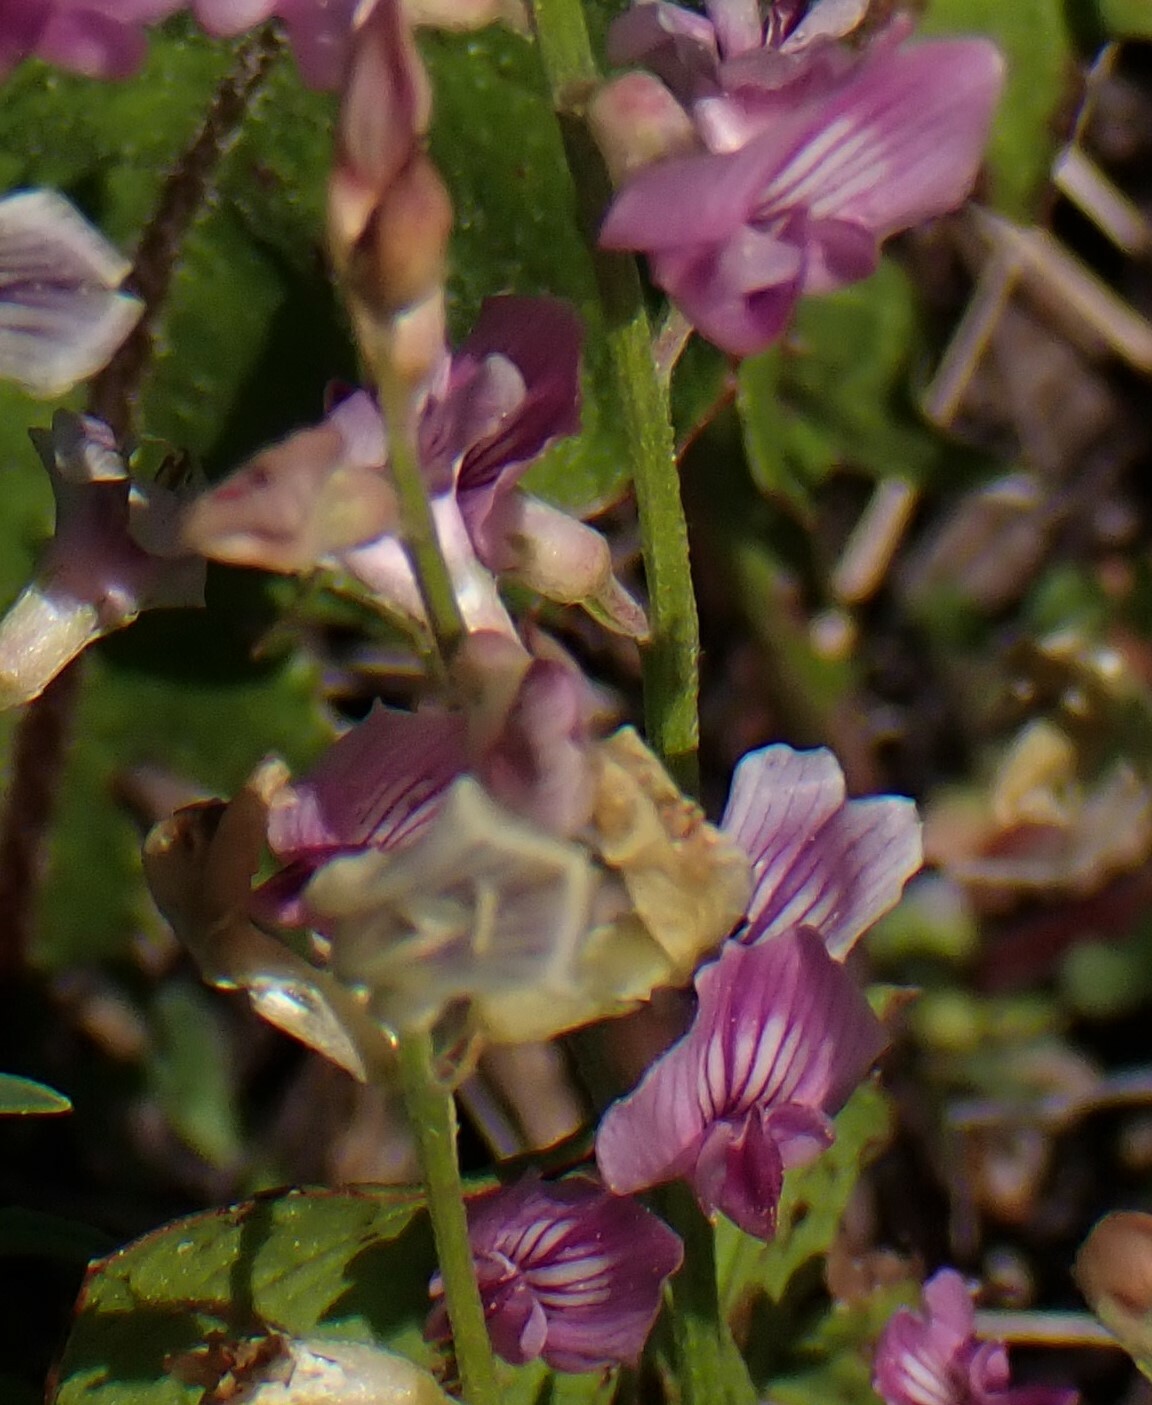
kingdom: Plantae
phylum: Tracheophyta
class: Magnoliopsida
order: Fabales
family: Fabaceae
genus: Astragalus
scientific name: Astragalus miser
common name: Timber milkvetch
